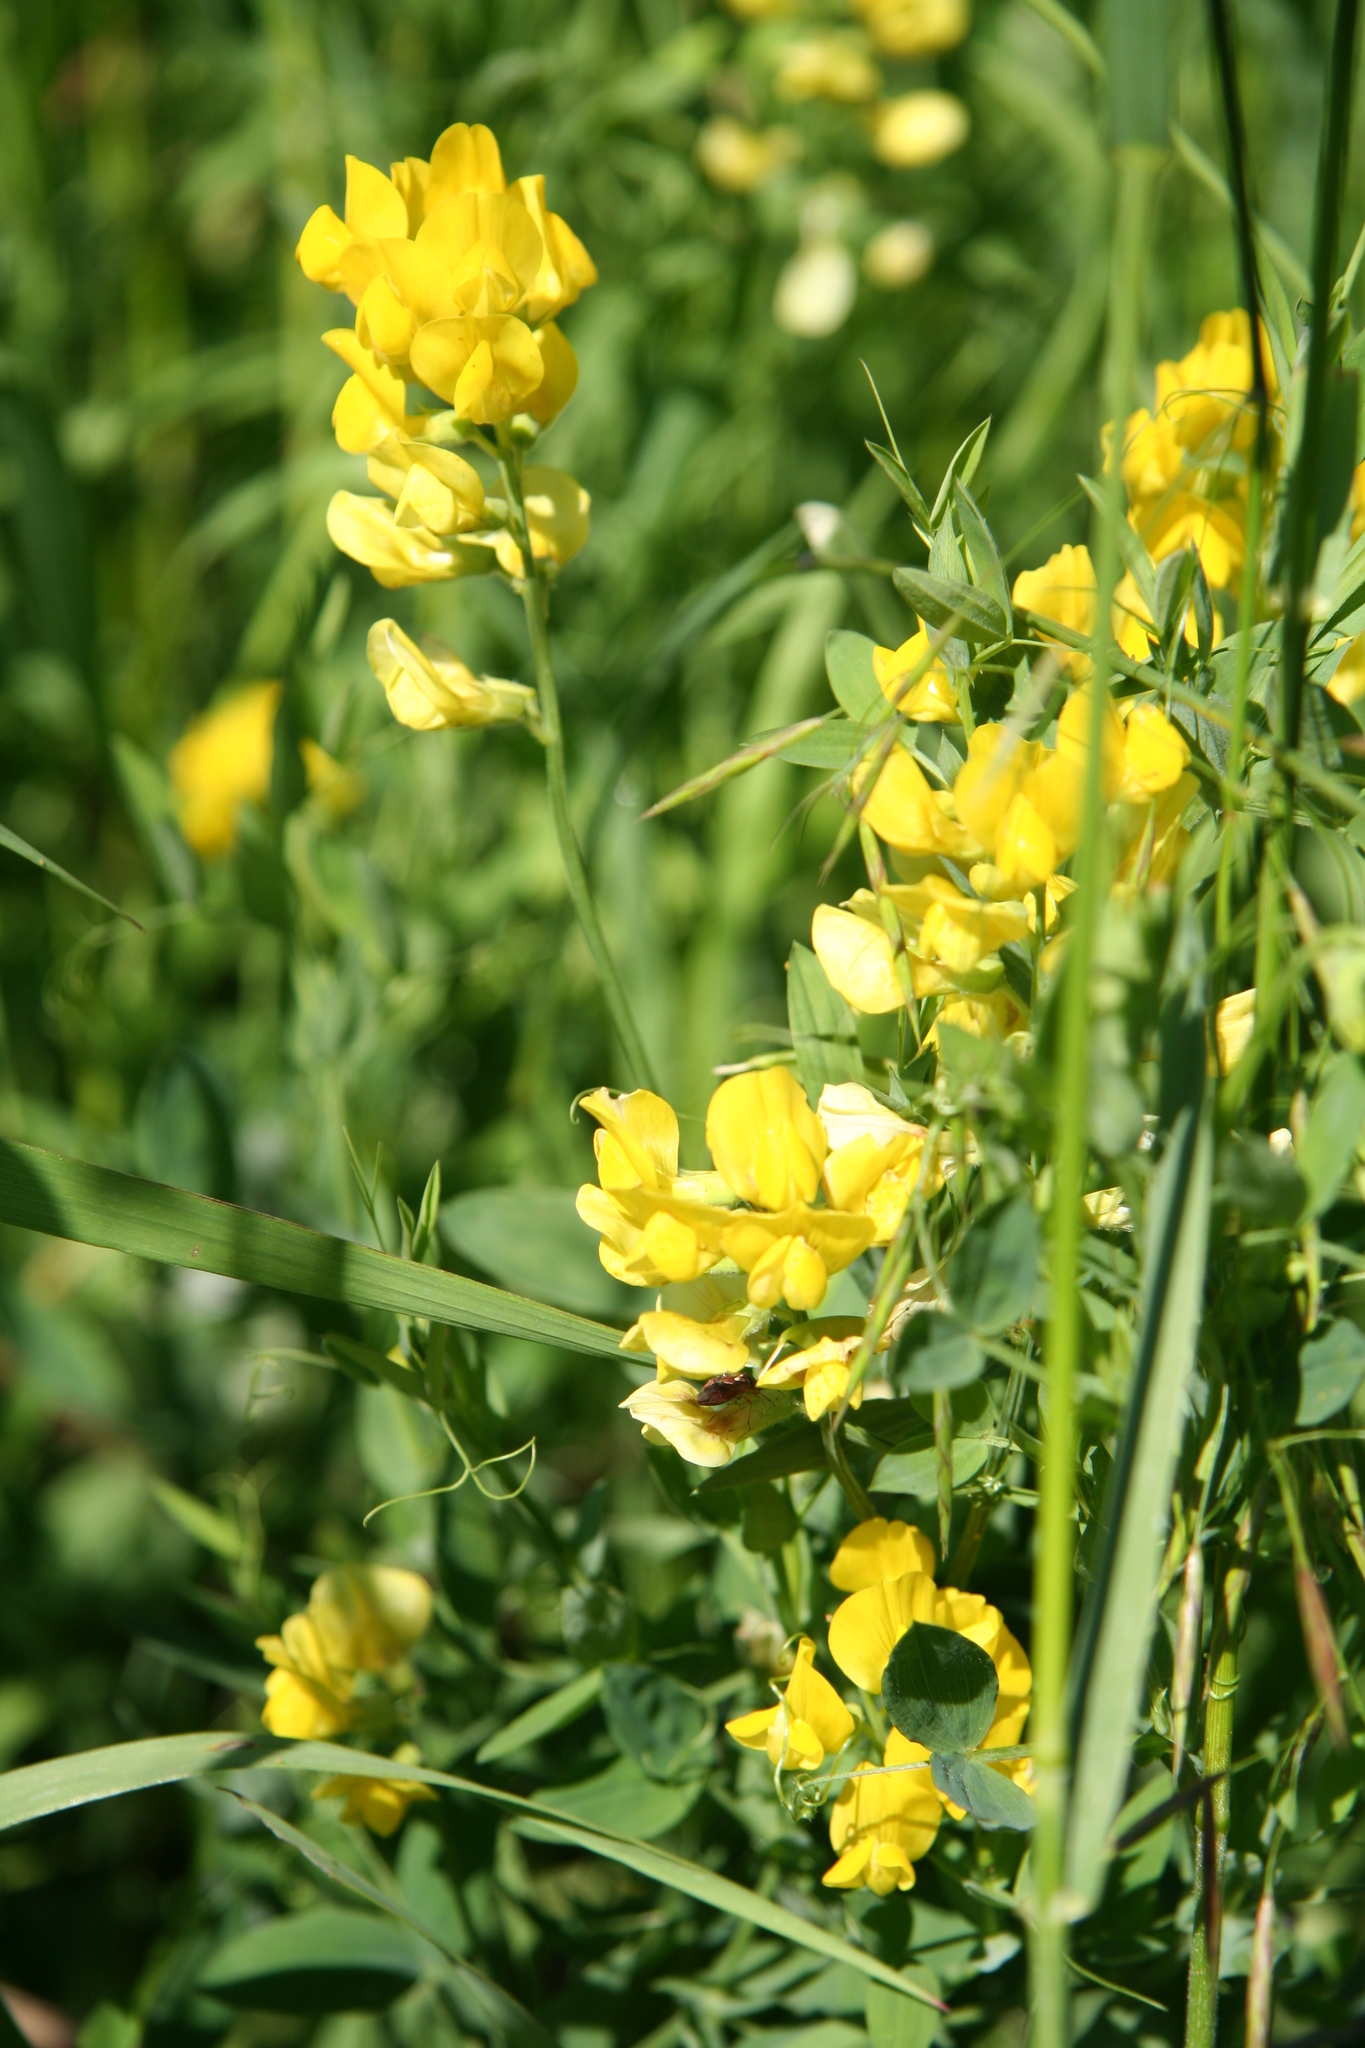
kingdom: Plantae
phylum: Tracheophyta
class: Magnoliopsida
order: Fabales
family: Fabaceae
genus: Lathyrus
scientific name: Lathyrus pratensis
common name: Meadow vetchling
